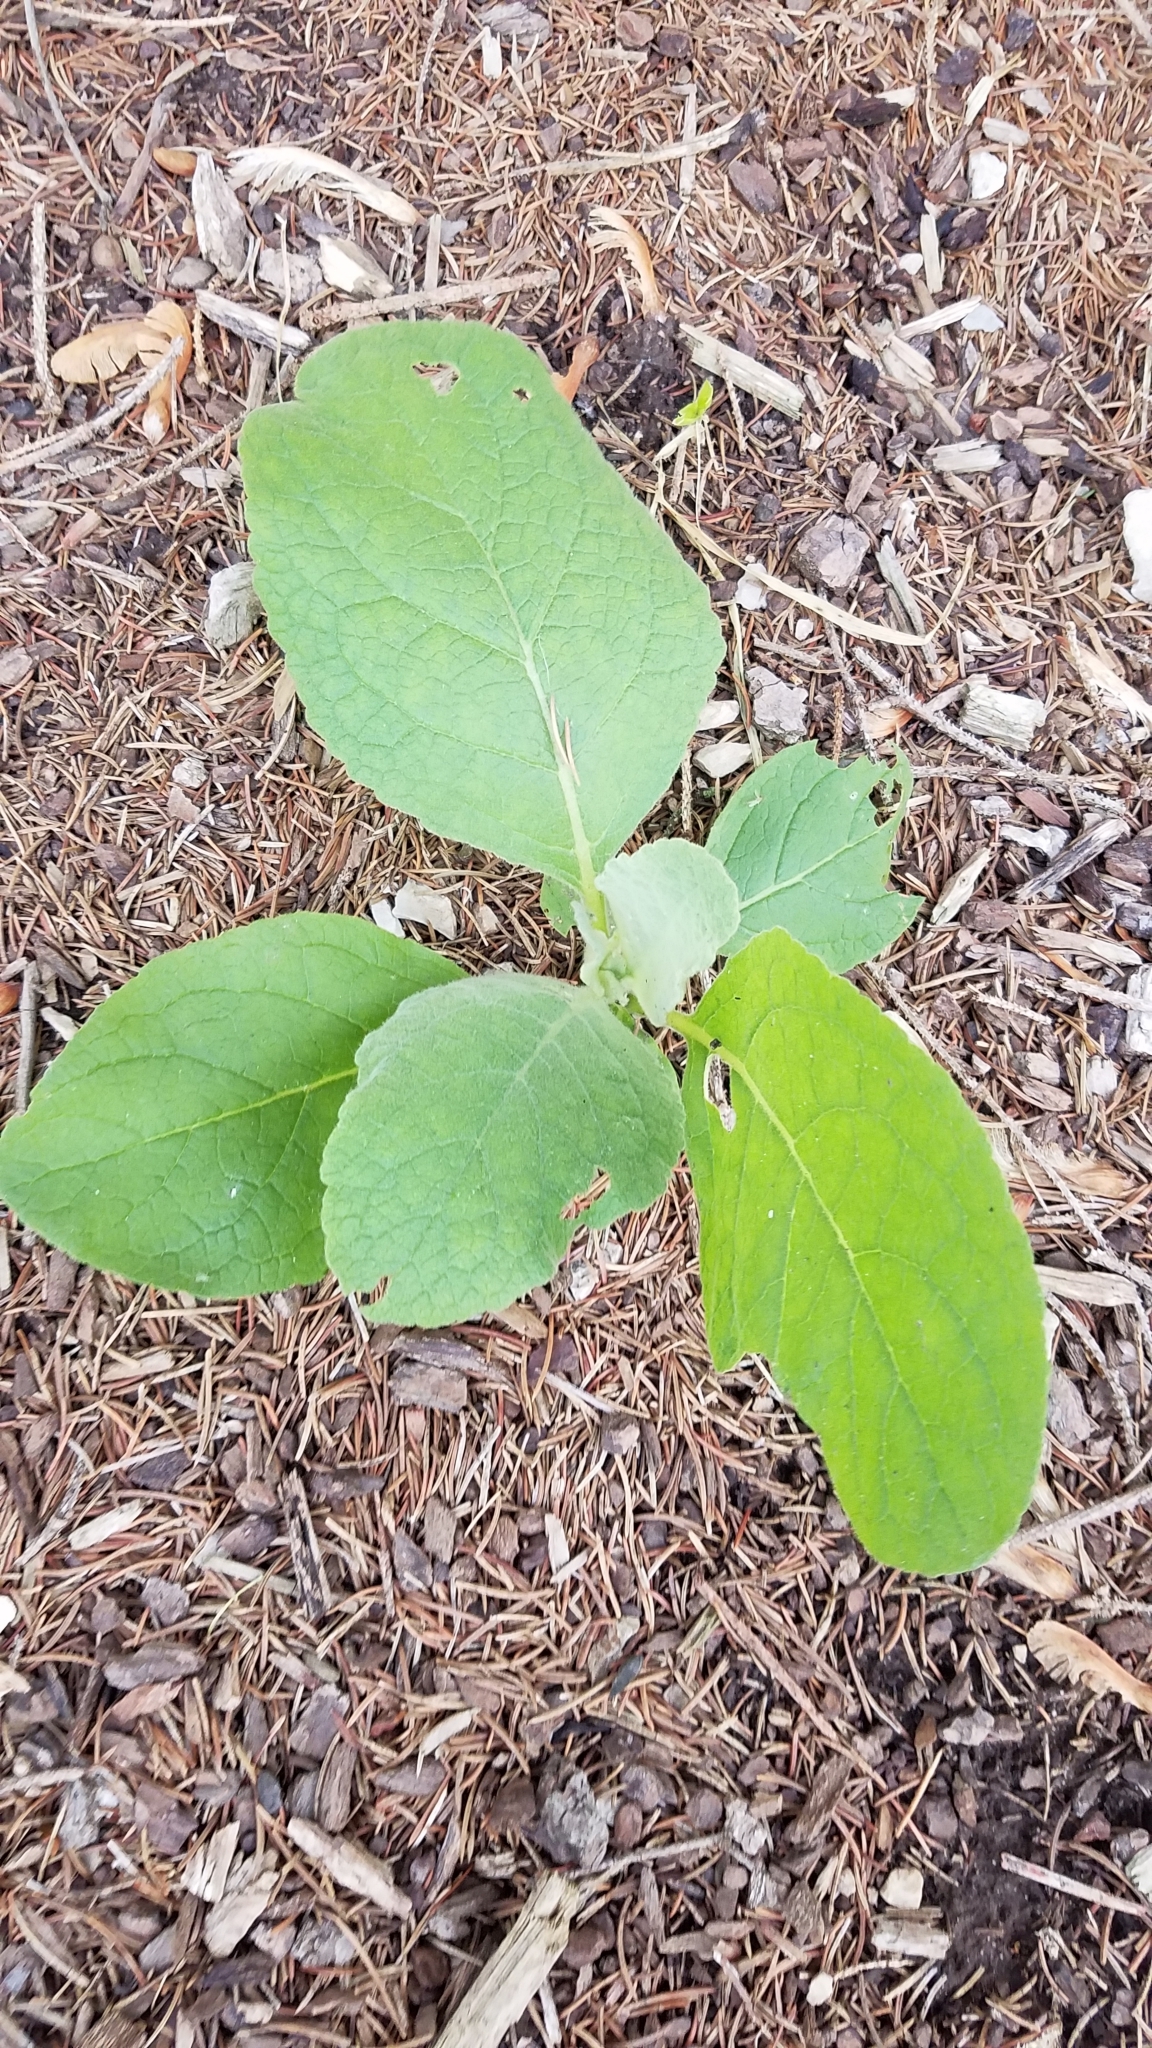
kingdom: Plantae
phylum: Tracheophyta
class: Magnoliopsida
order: Lamiales
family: Scrophulariaceae
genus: Verbascum
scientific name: Verbascum thapsus
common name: Common mullein
